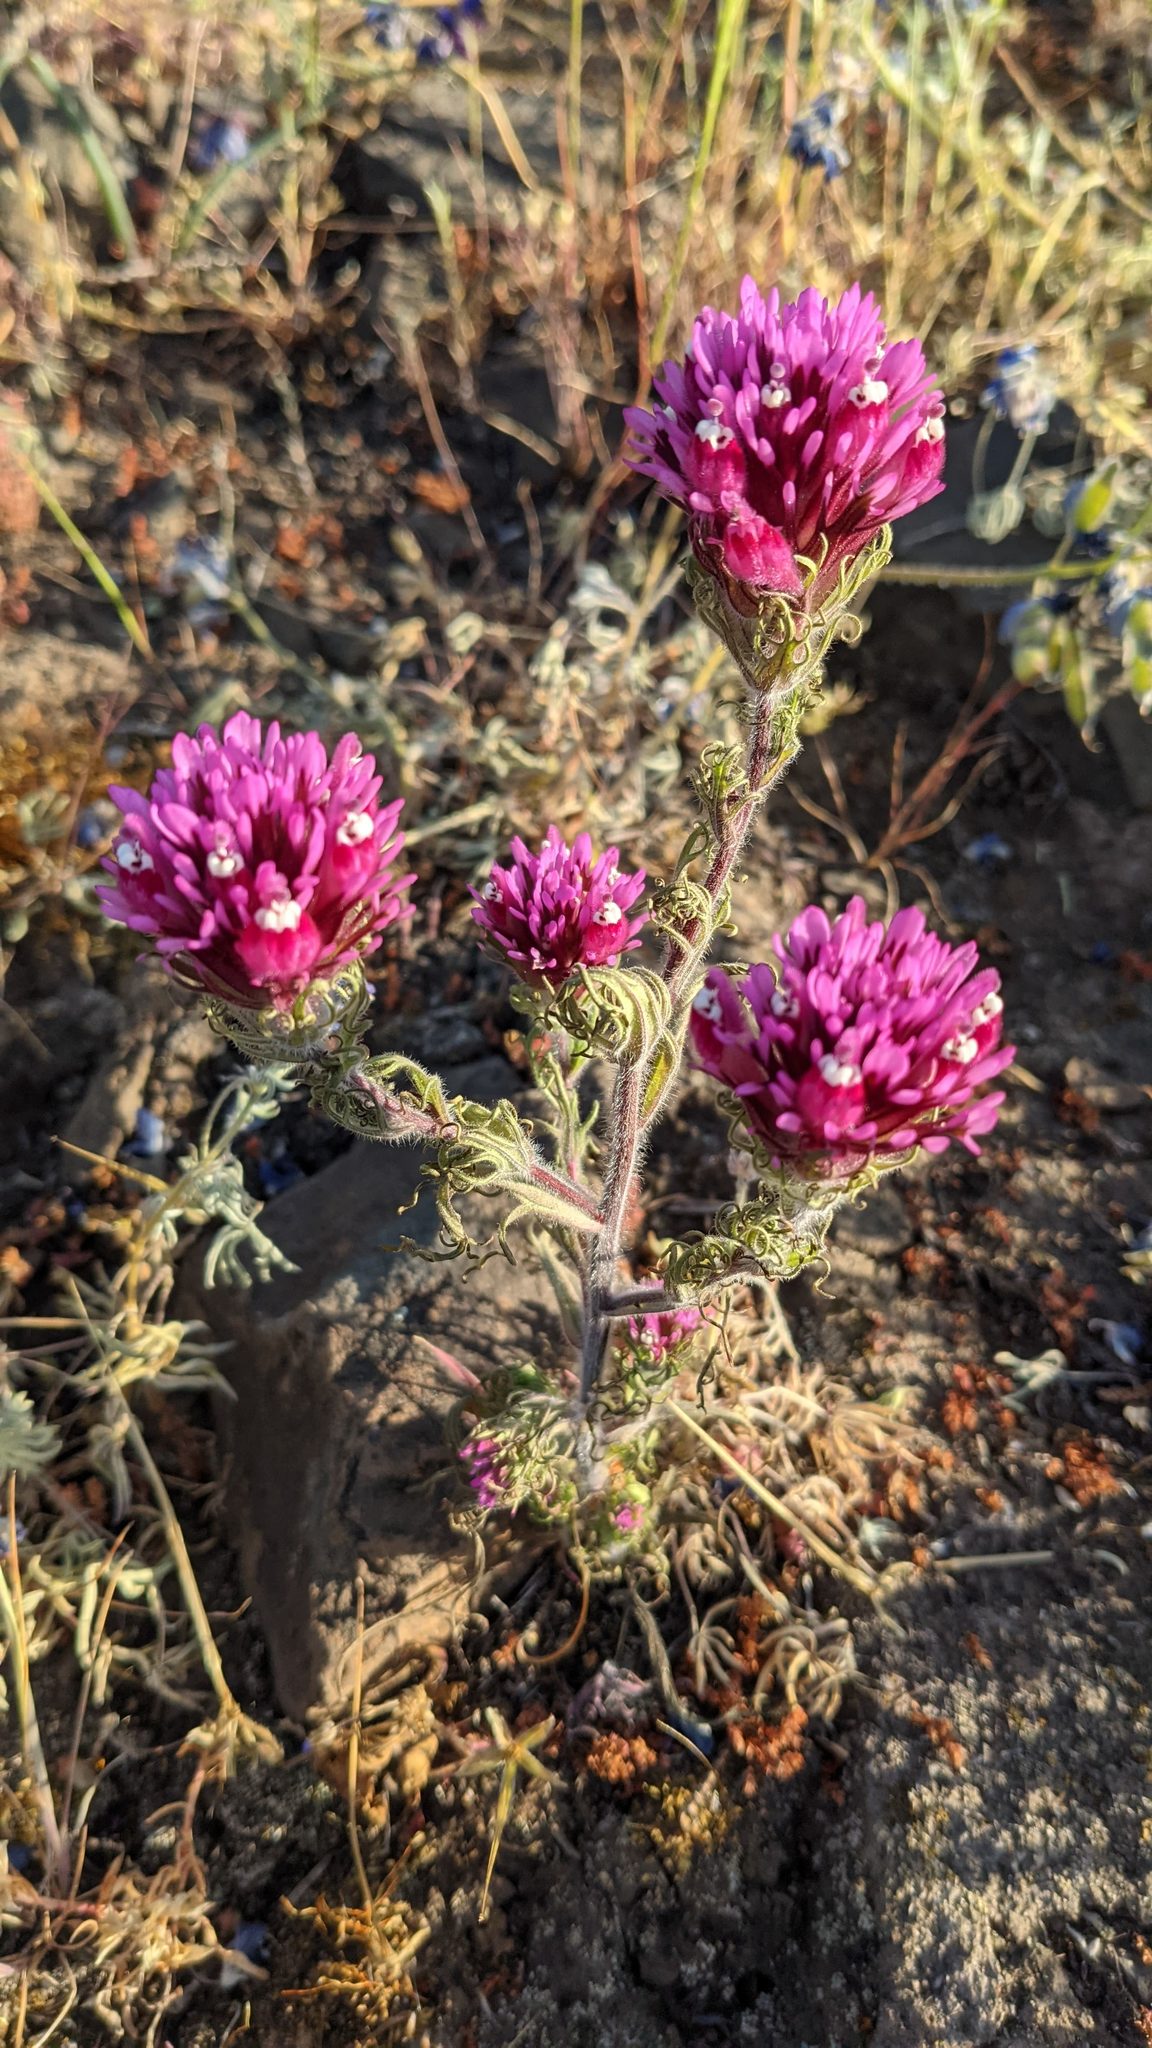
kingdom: Plantae
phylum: Tracheophyta
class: Magnoliopsida
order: Lamiales
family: Orobanchaceae
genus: Castilleja
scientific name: Castilleja exserta
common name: Purple owl-clover
